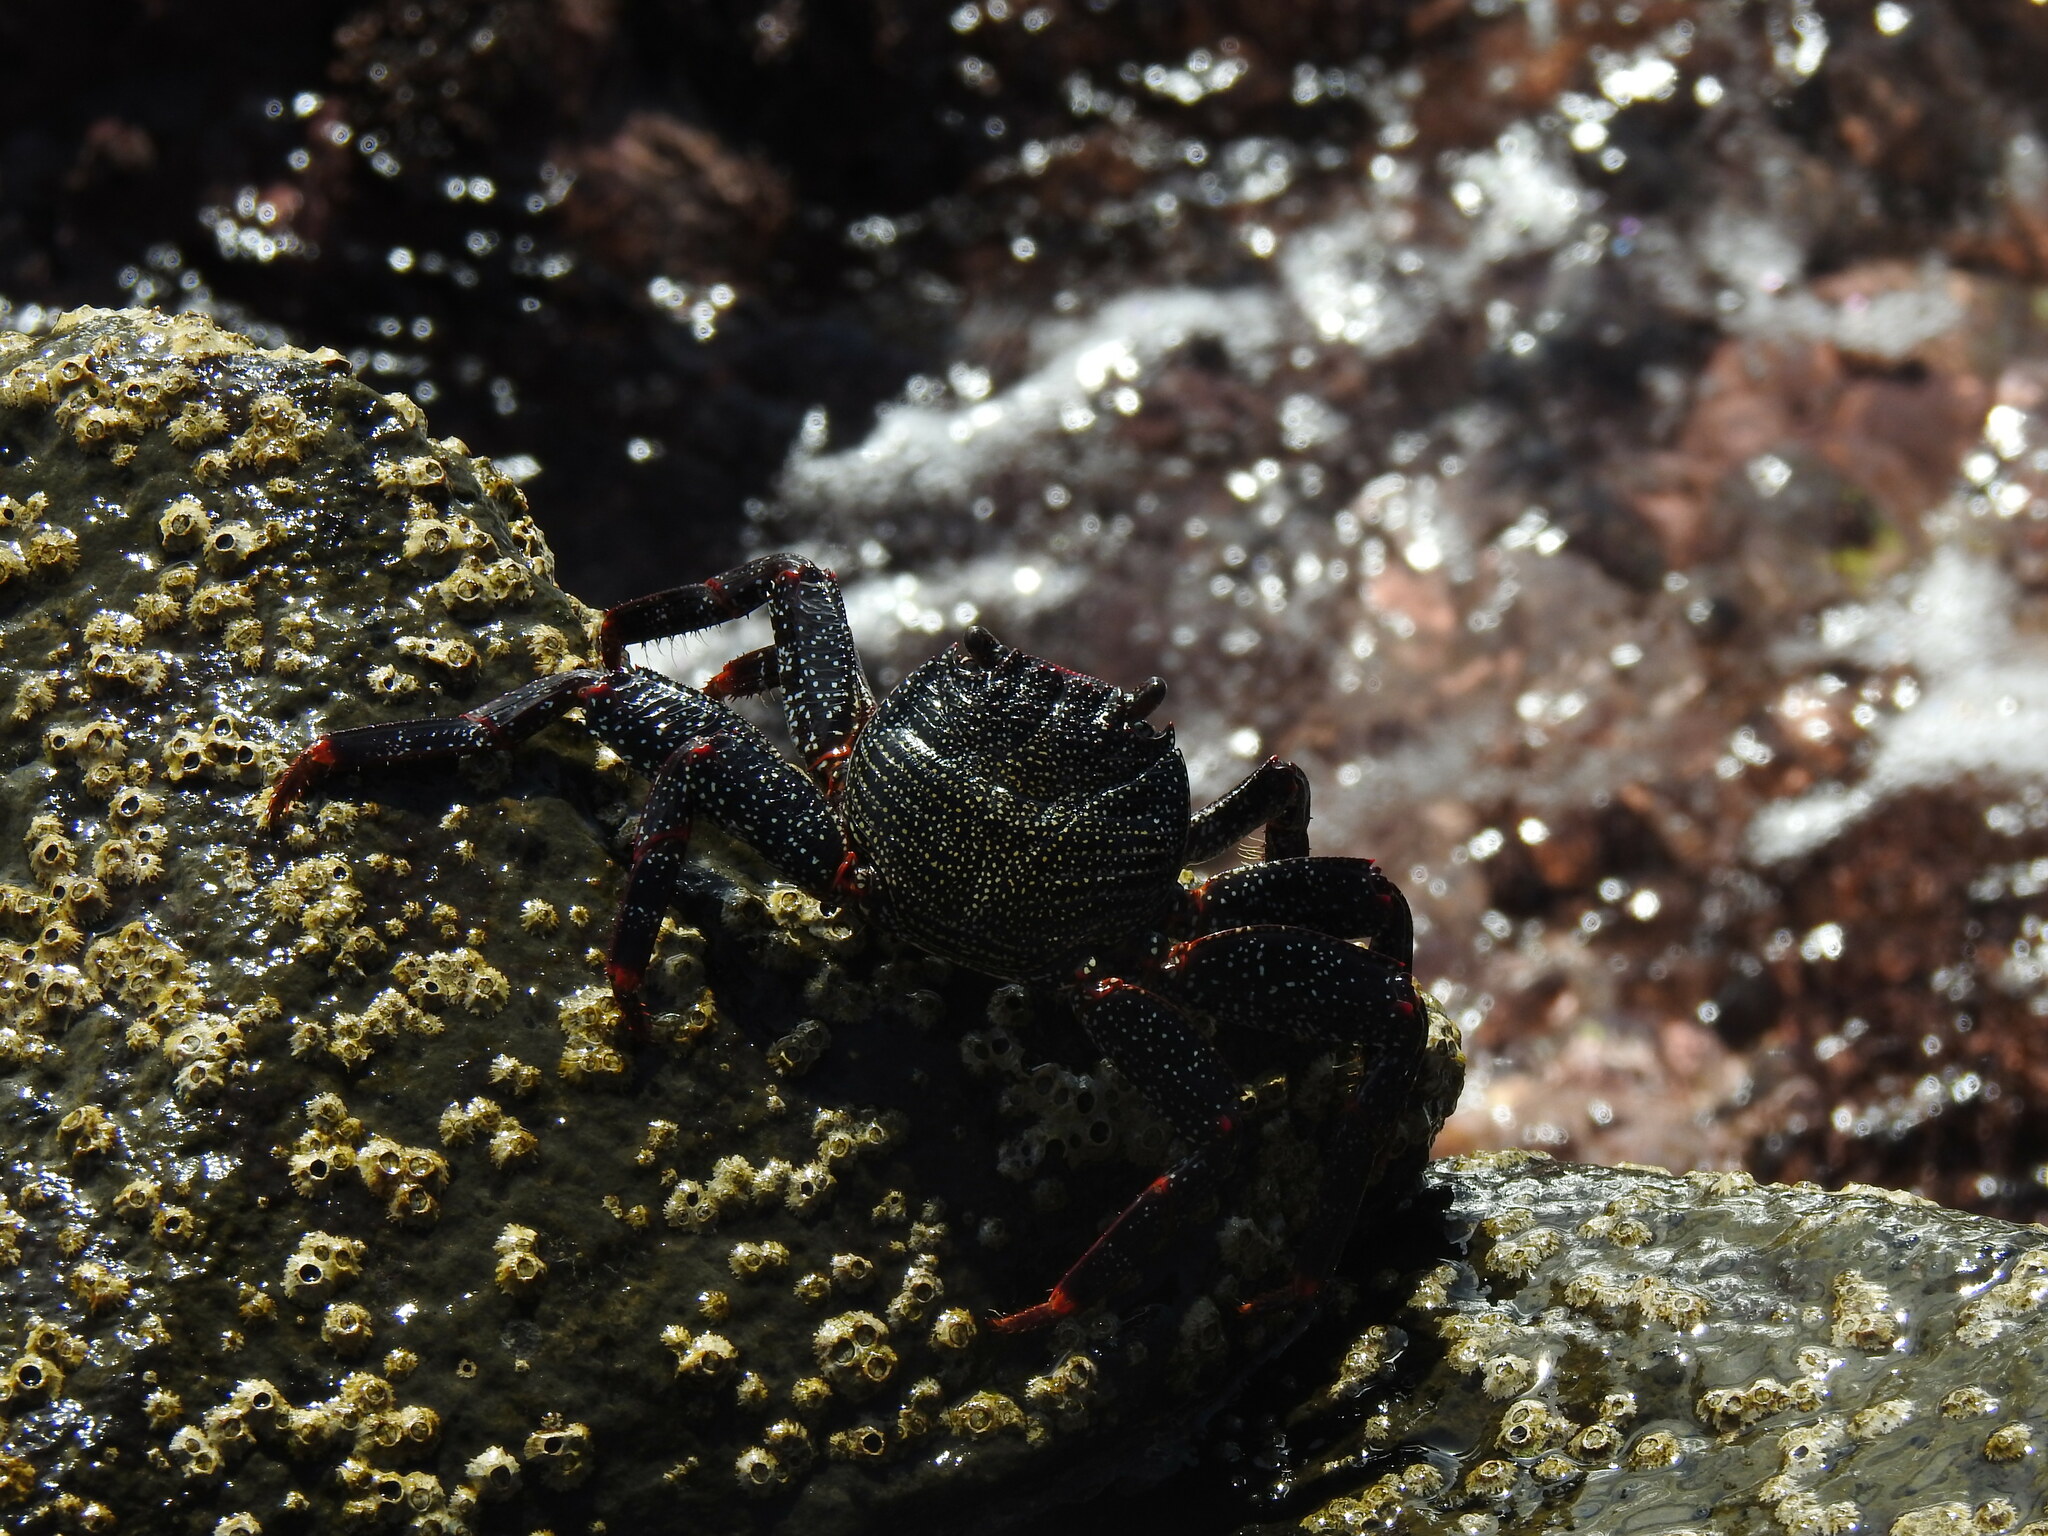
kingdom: Animalia
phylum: Arthropoda
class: Malacostraca
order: Decapoda
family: Grapsidae
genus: Grapsus
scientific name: Grapsus adscensionis
